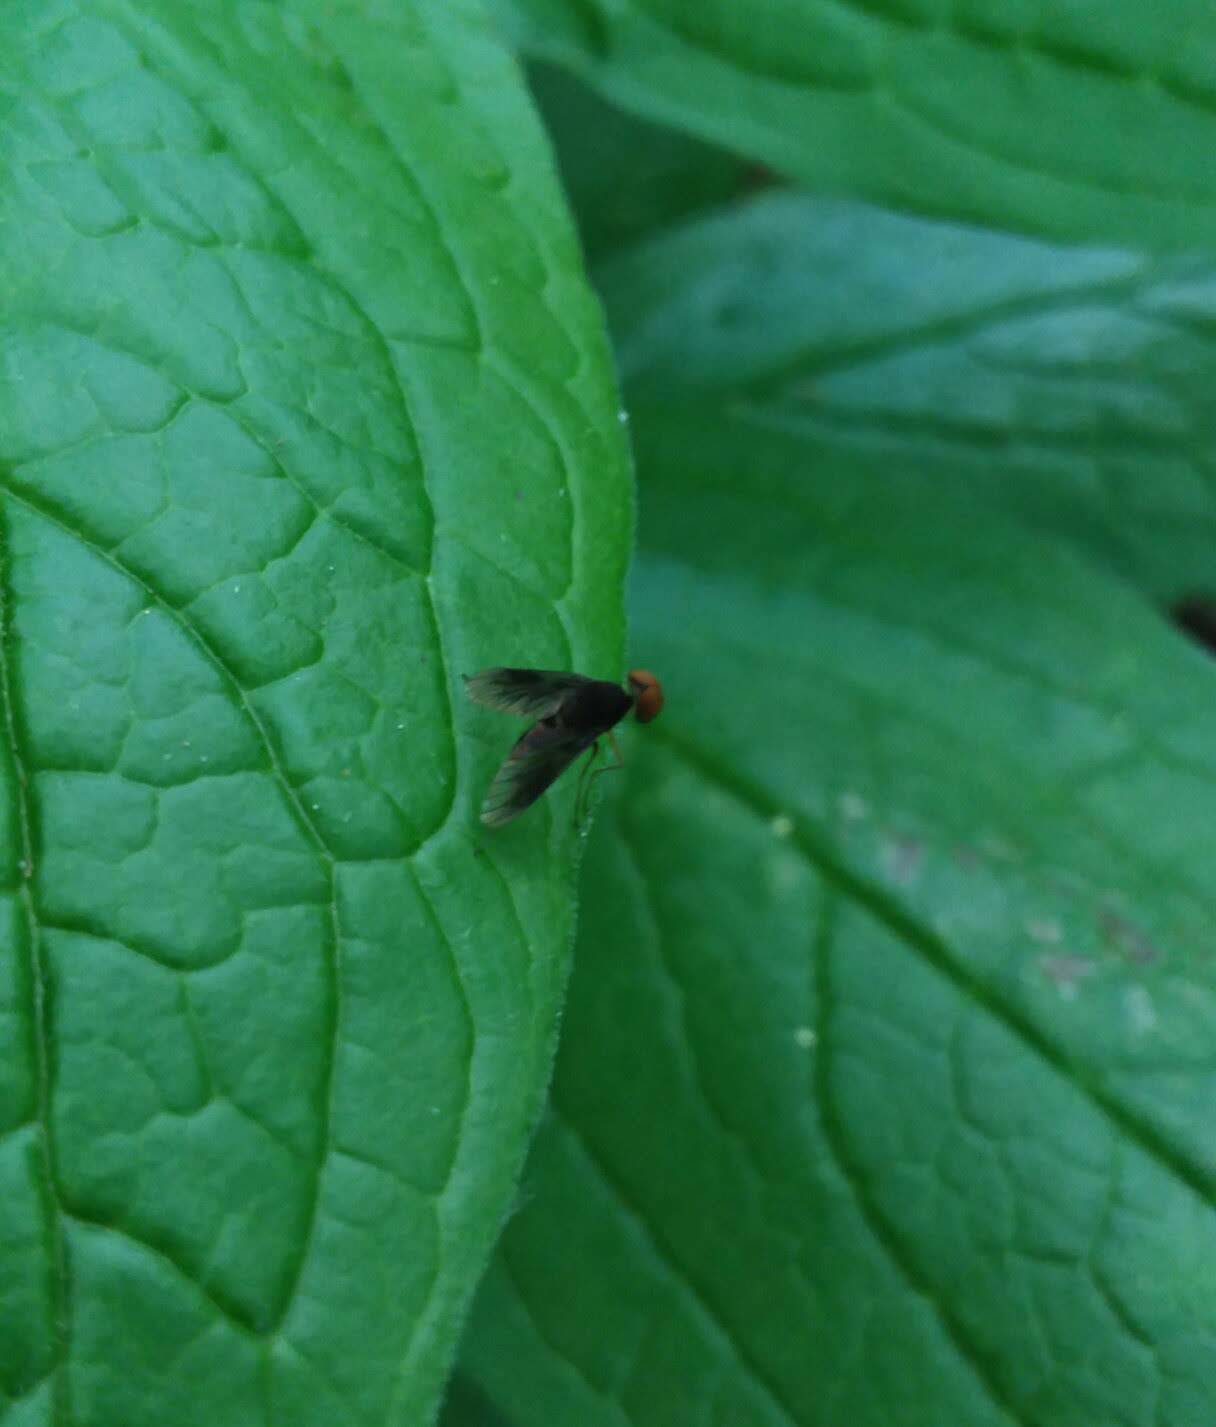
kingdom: Animalia
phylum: Arthropoda
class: Insecta
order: Diptera
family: Rhagionidae
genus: Chrysopilus
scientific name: Chrysopilus quadratus
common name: Quadrate snipe fly
